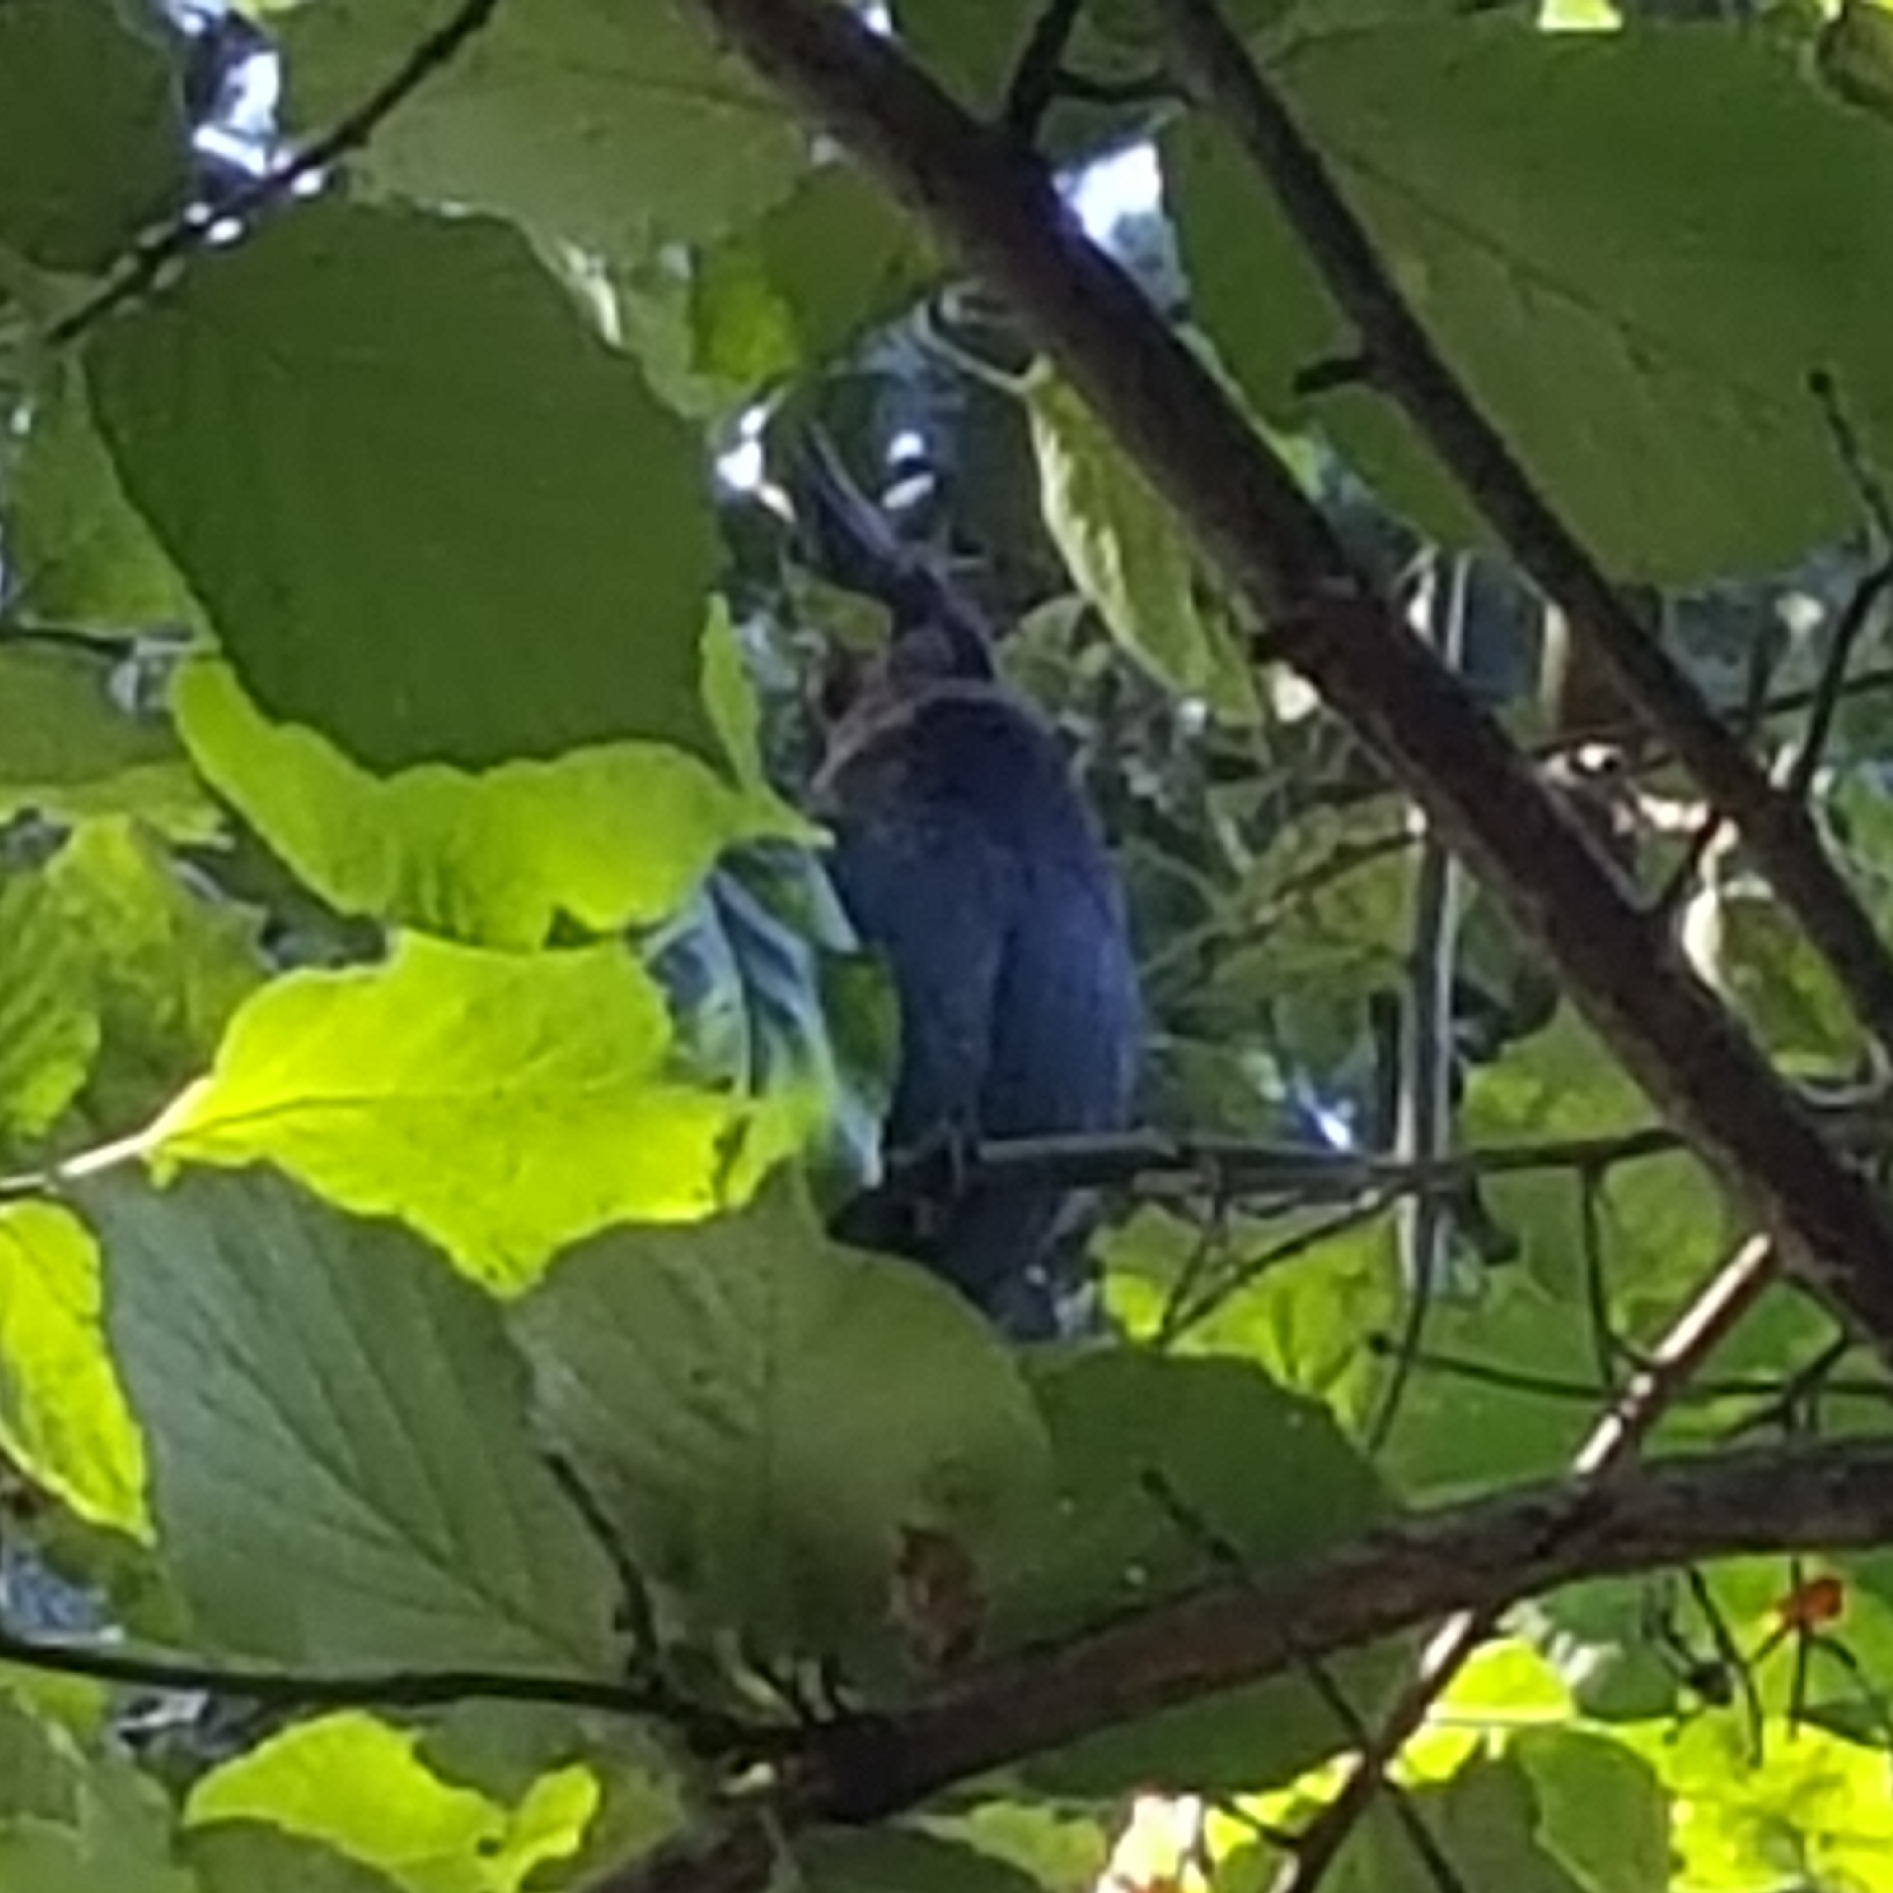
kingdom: Animalia
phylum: Chordata
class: Aves
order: Passeriformes
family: Corvidae
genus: Cyanocitta
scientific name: Cyanocitta stelleri
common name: Steller's jay
